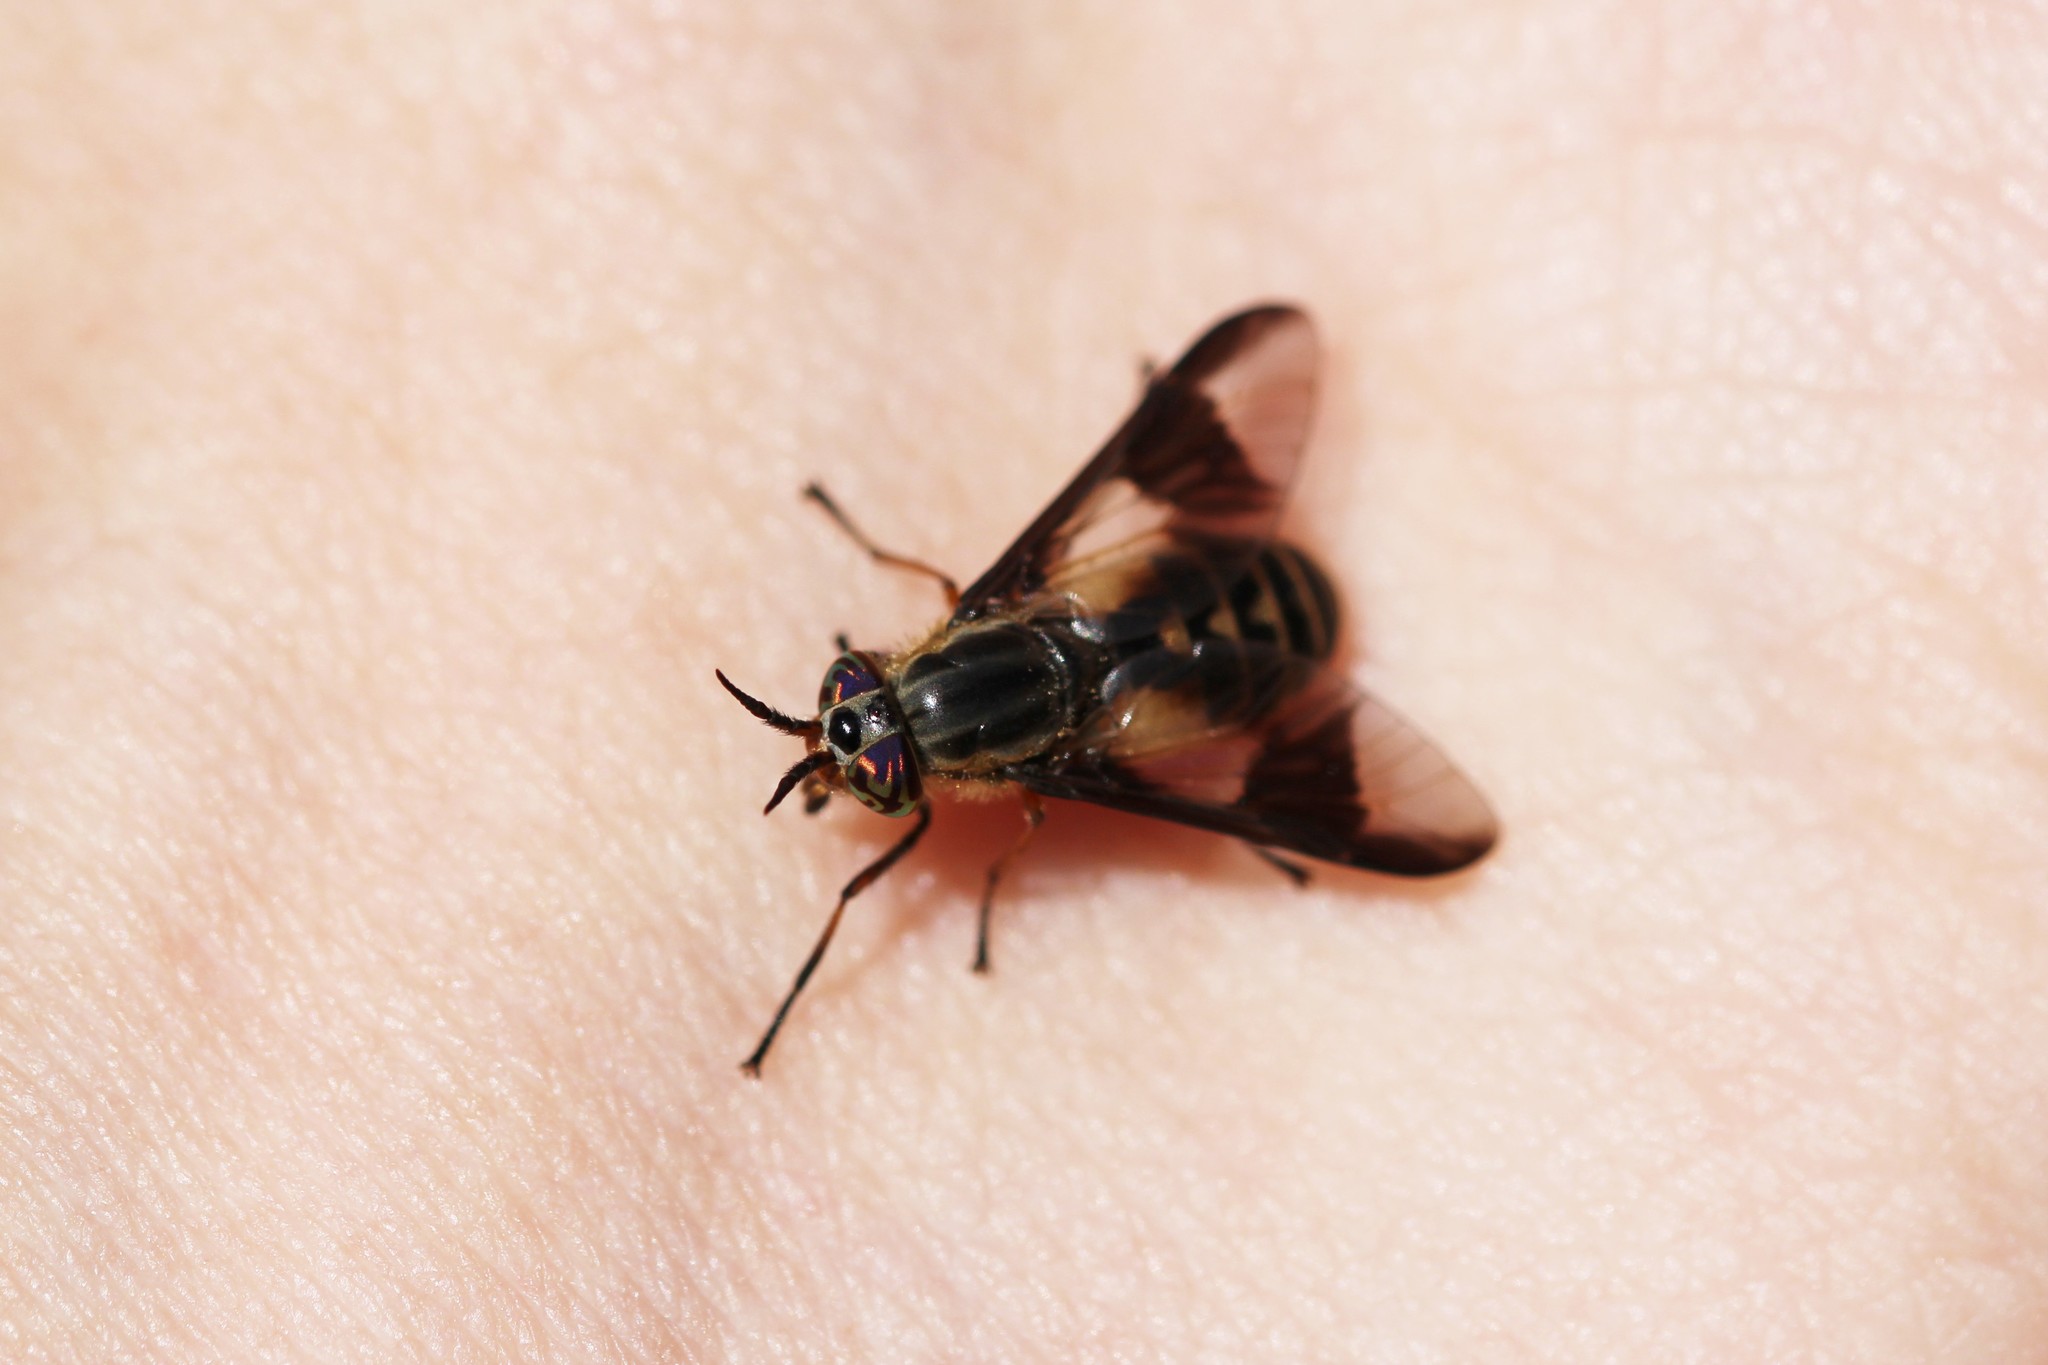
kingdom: Animalia
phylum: Arthropoda
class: Insecta
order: Diptera
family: Tabanidae
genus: Chrysops
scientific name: Chrysops montanus
